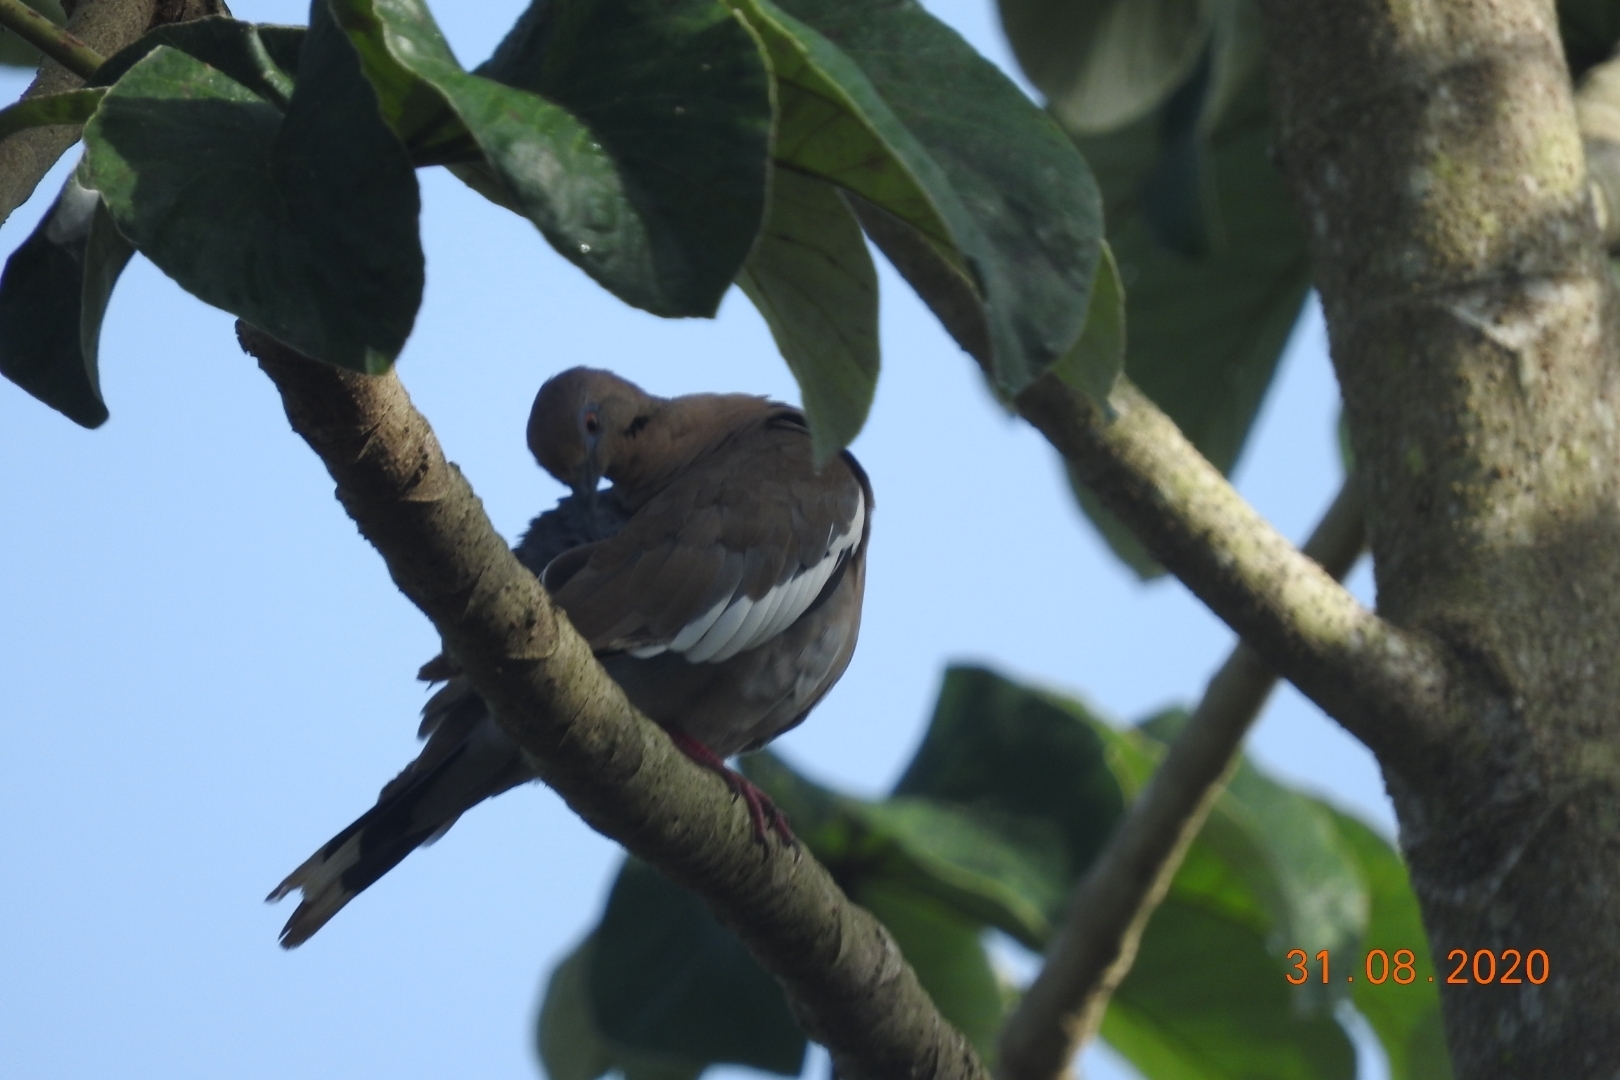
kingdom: Animalia
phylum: Chordata
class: Aves
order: Columbiformes
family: Columbidae
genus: Zenaida
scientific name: Zenaida asiatica
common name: White-winged dove
